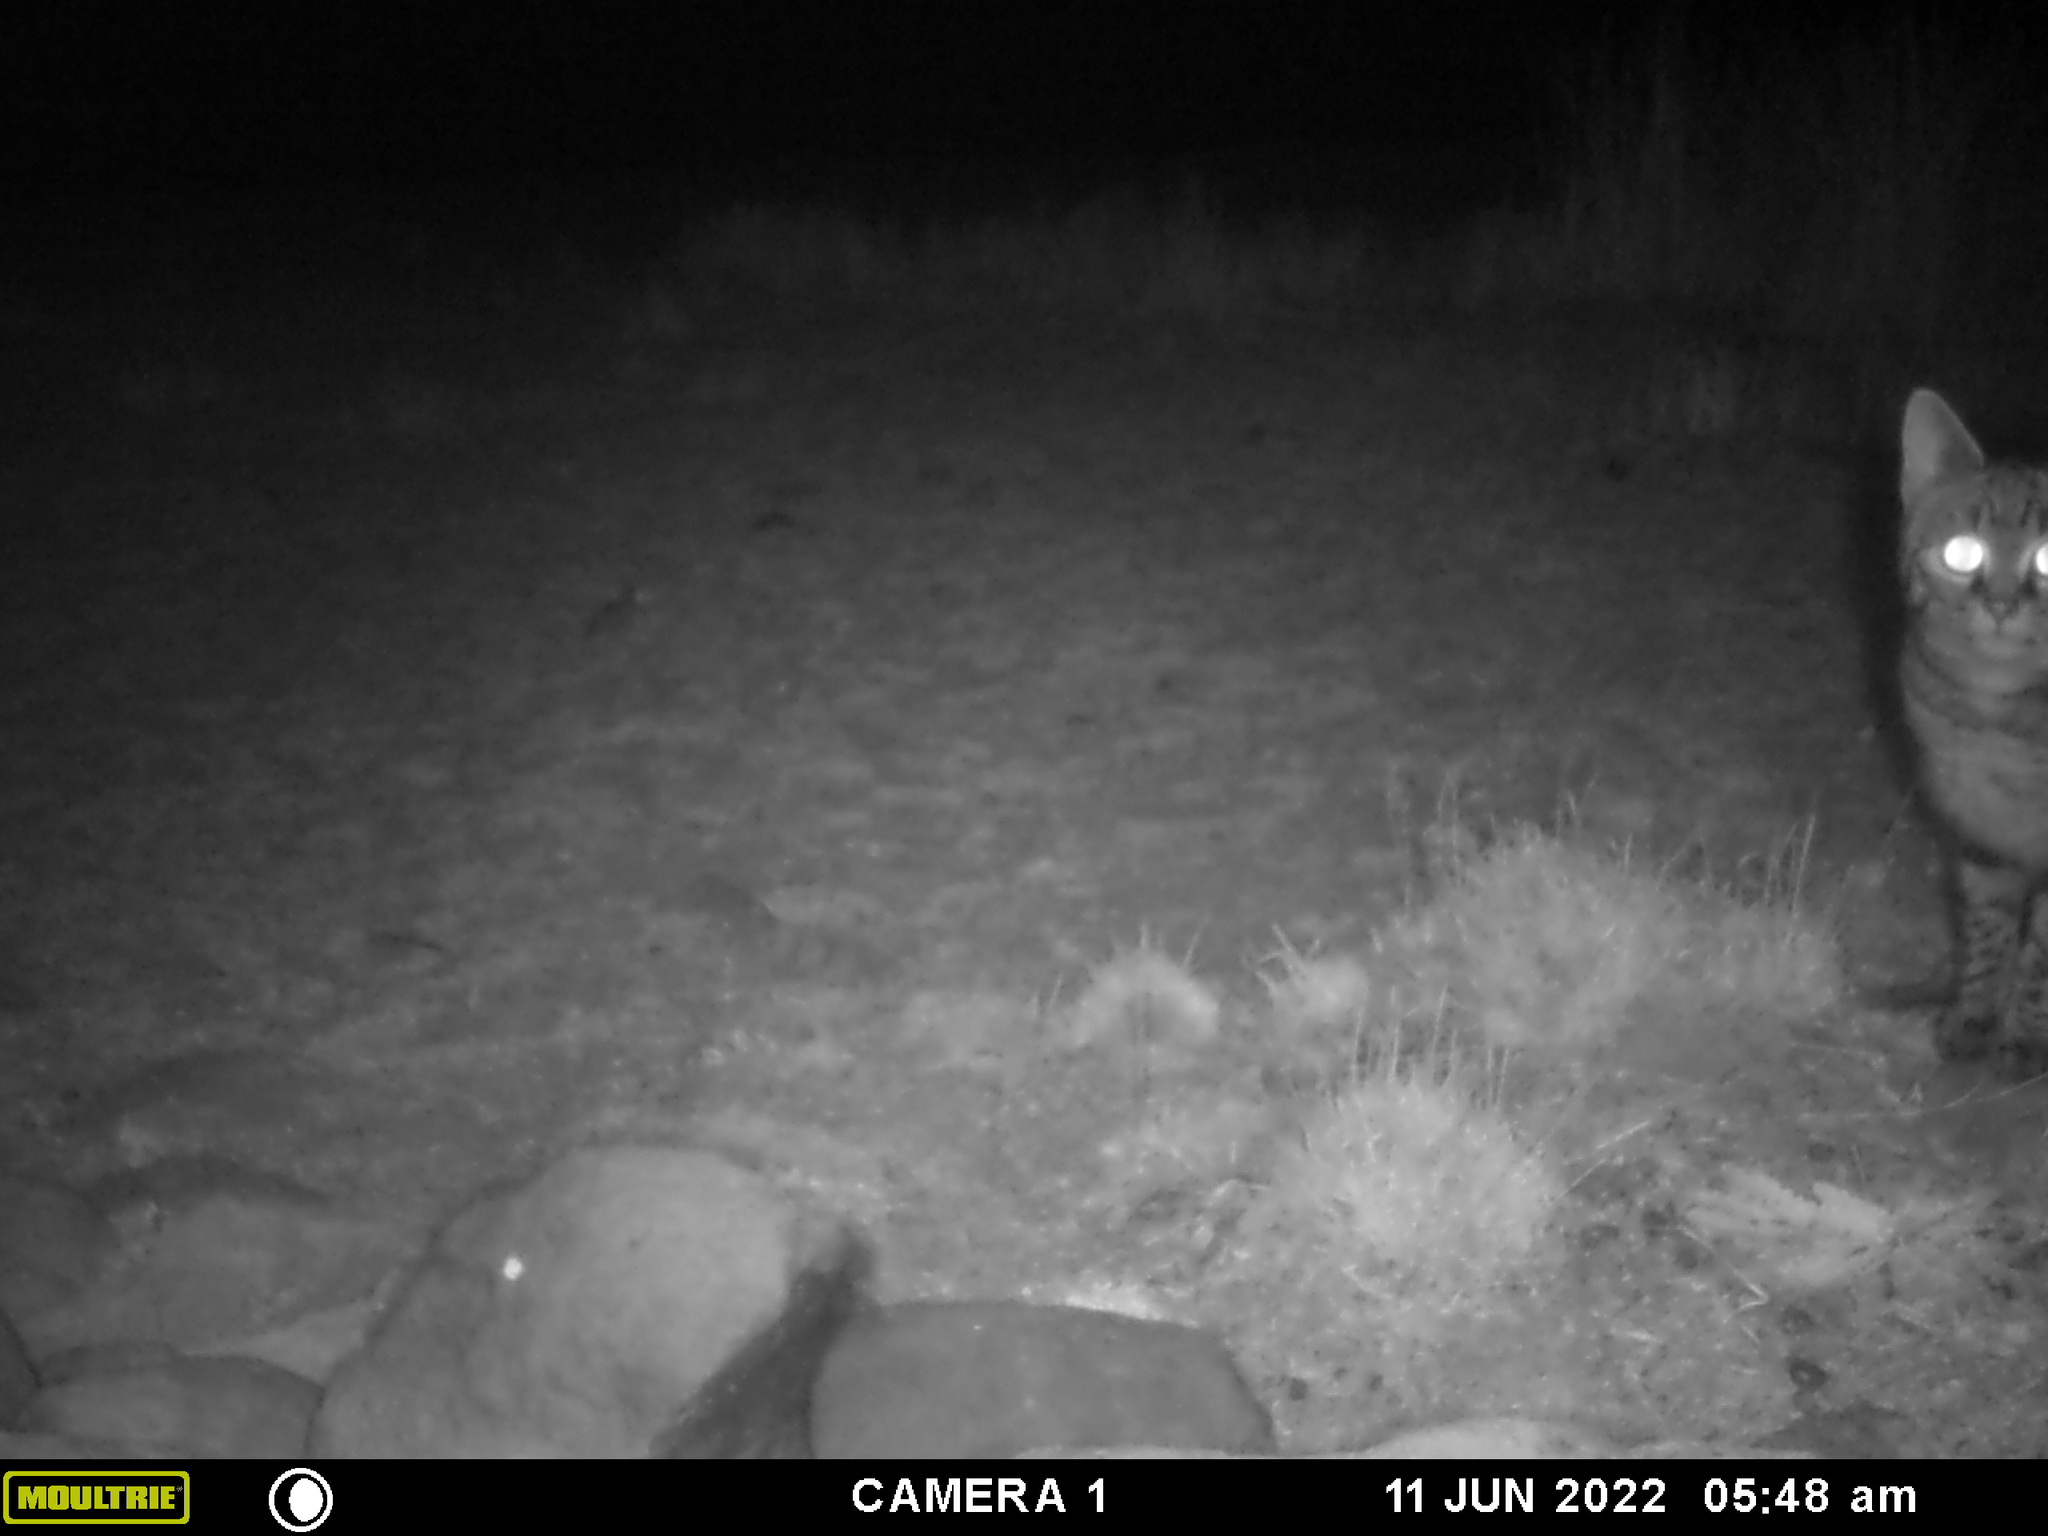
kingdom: Animalia
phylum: Chordata
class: Mammalia
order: Carnivora
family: Felidae
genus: Felis
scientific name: Felis silvestris
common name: Wildcat
